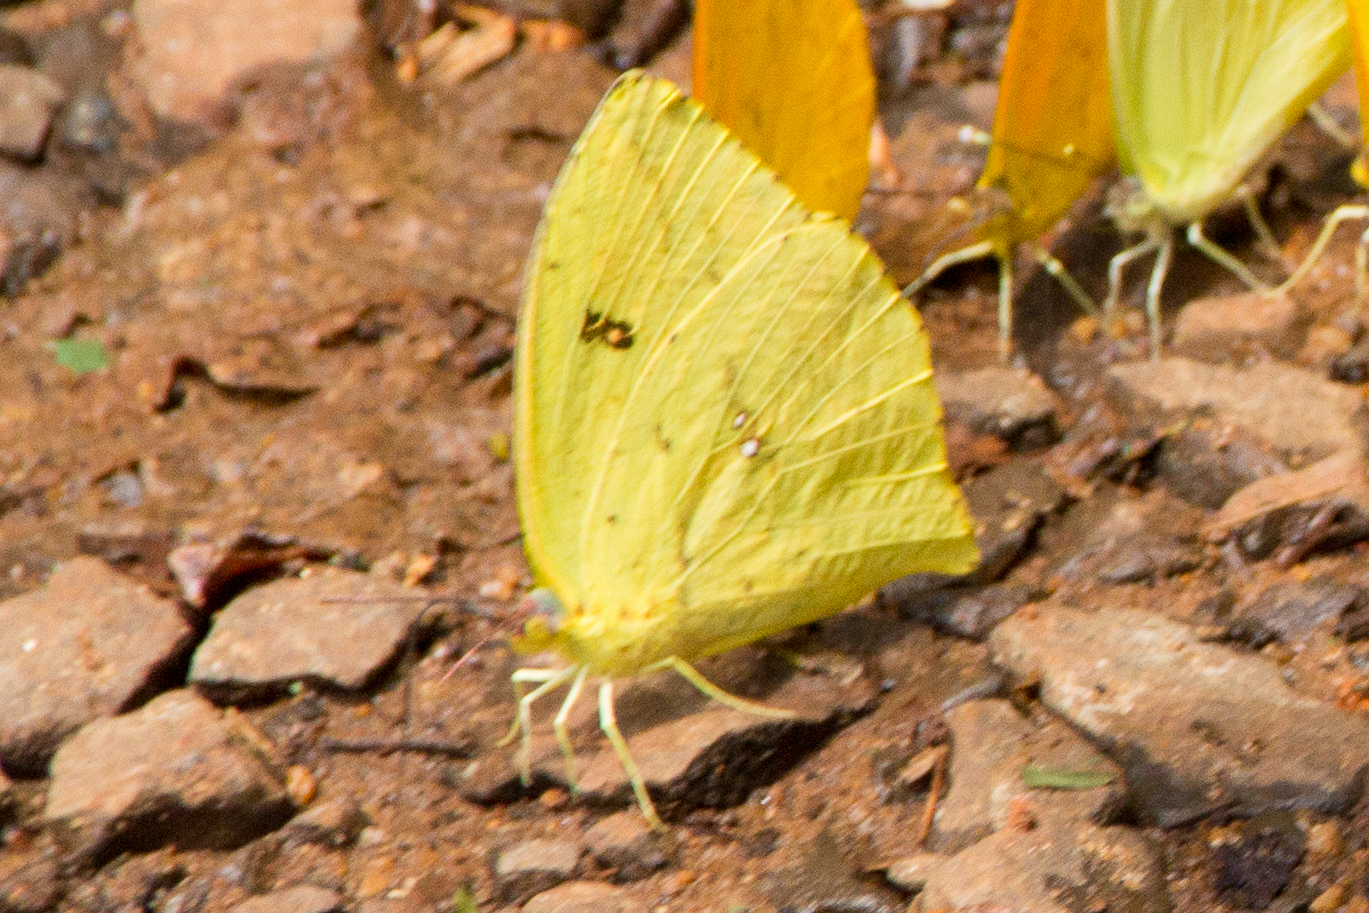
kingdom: Animalia
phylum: Arthropoda
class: Insecta
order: Lepidoptera
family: Pieridae
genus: Phoebis
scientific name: Phoebis neocypris
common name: Tailed sulphur
